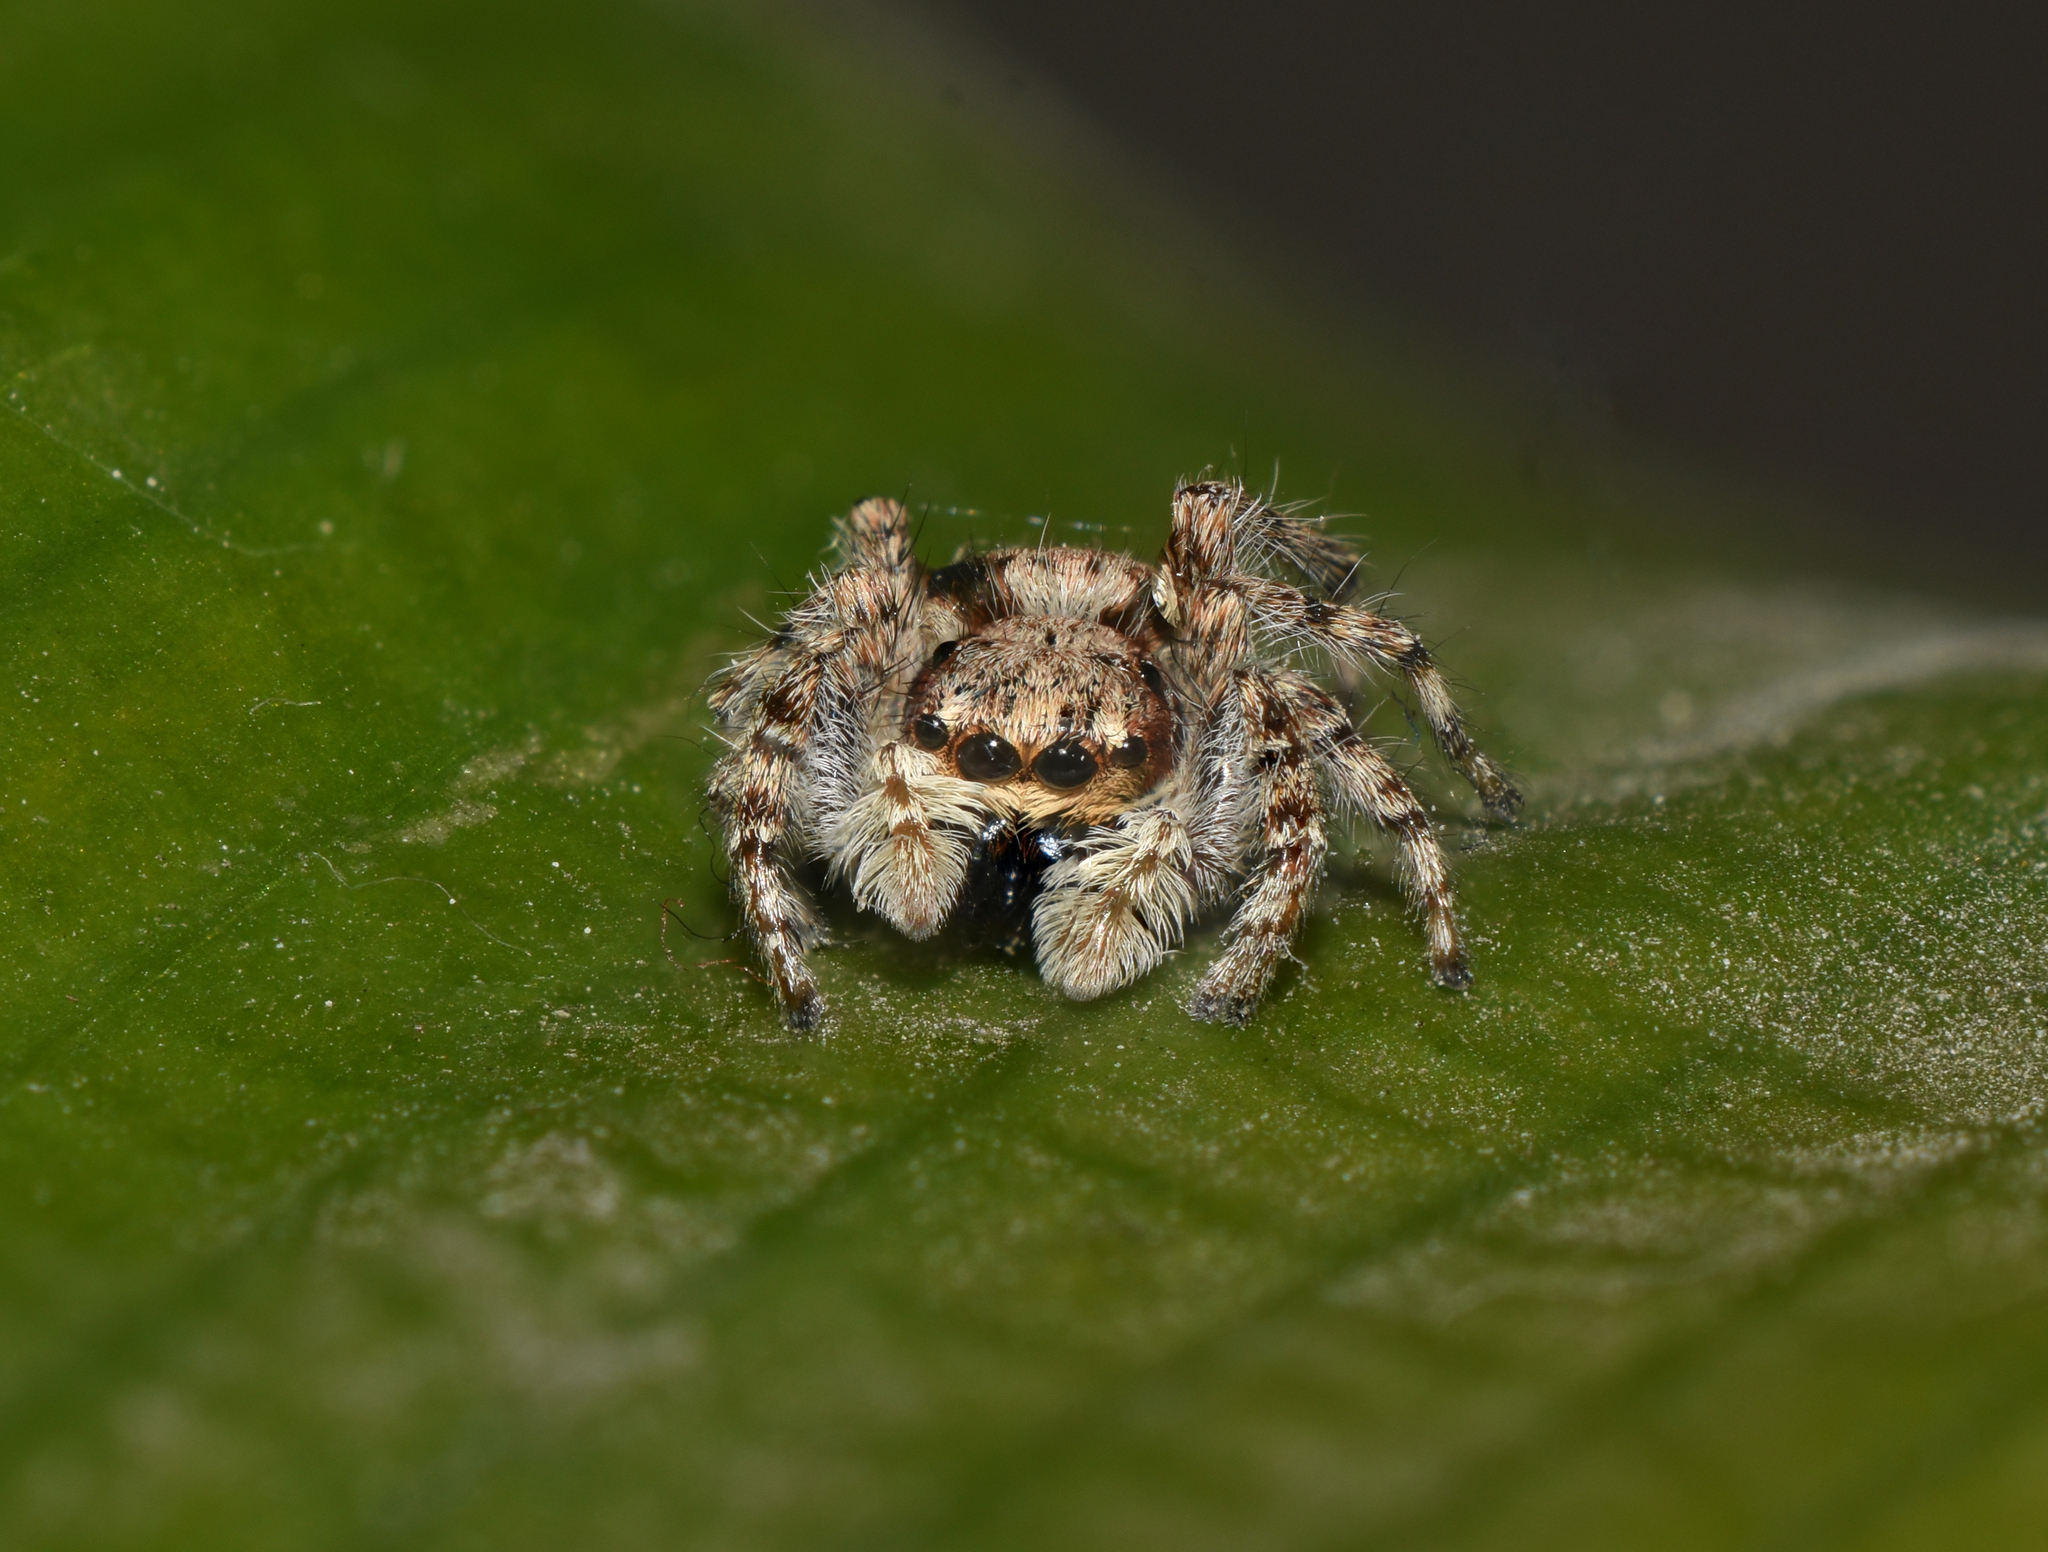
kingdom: Animalia
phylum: Arthropoda
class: Arachnida
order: Araneae
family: Salticidae
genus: Menemerus
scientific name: Menemerus bivittatus
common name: Gray wall jumper
